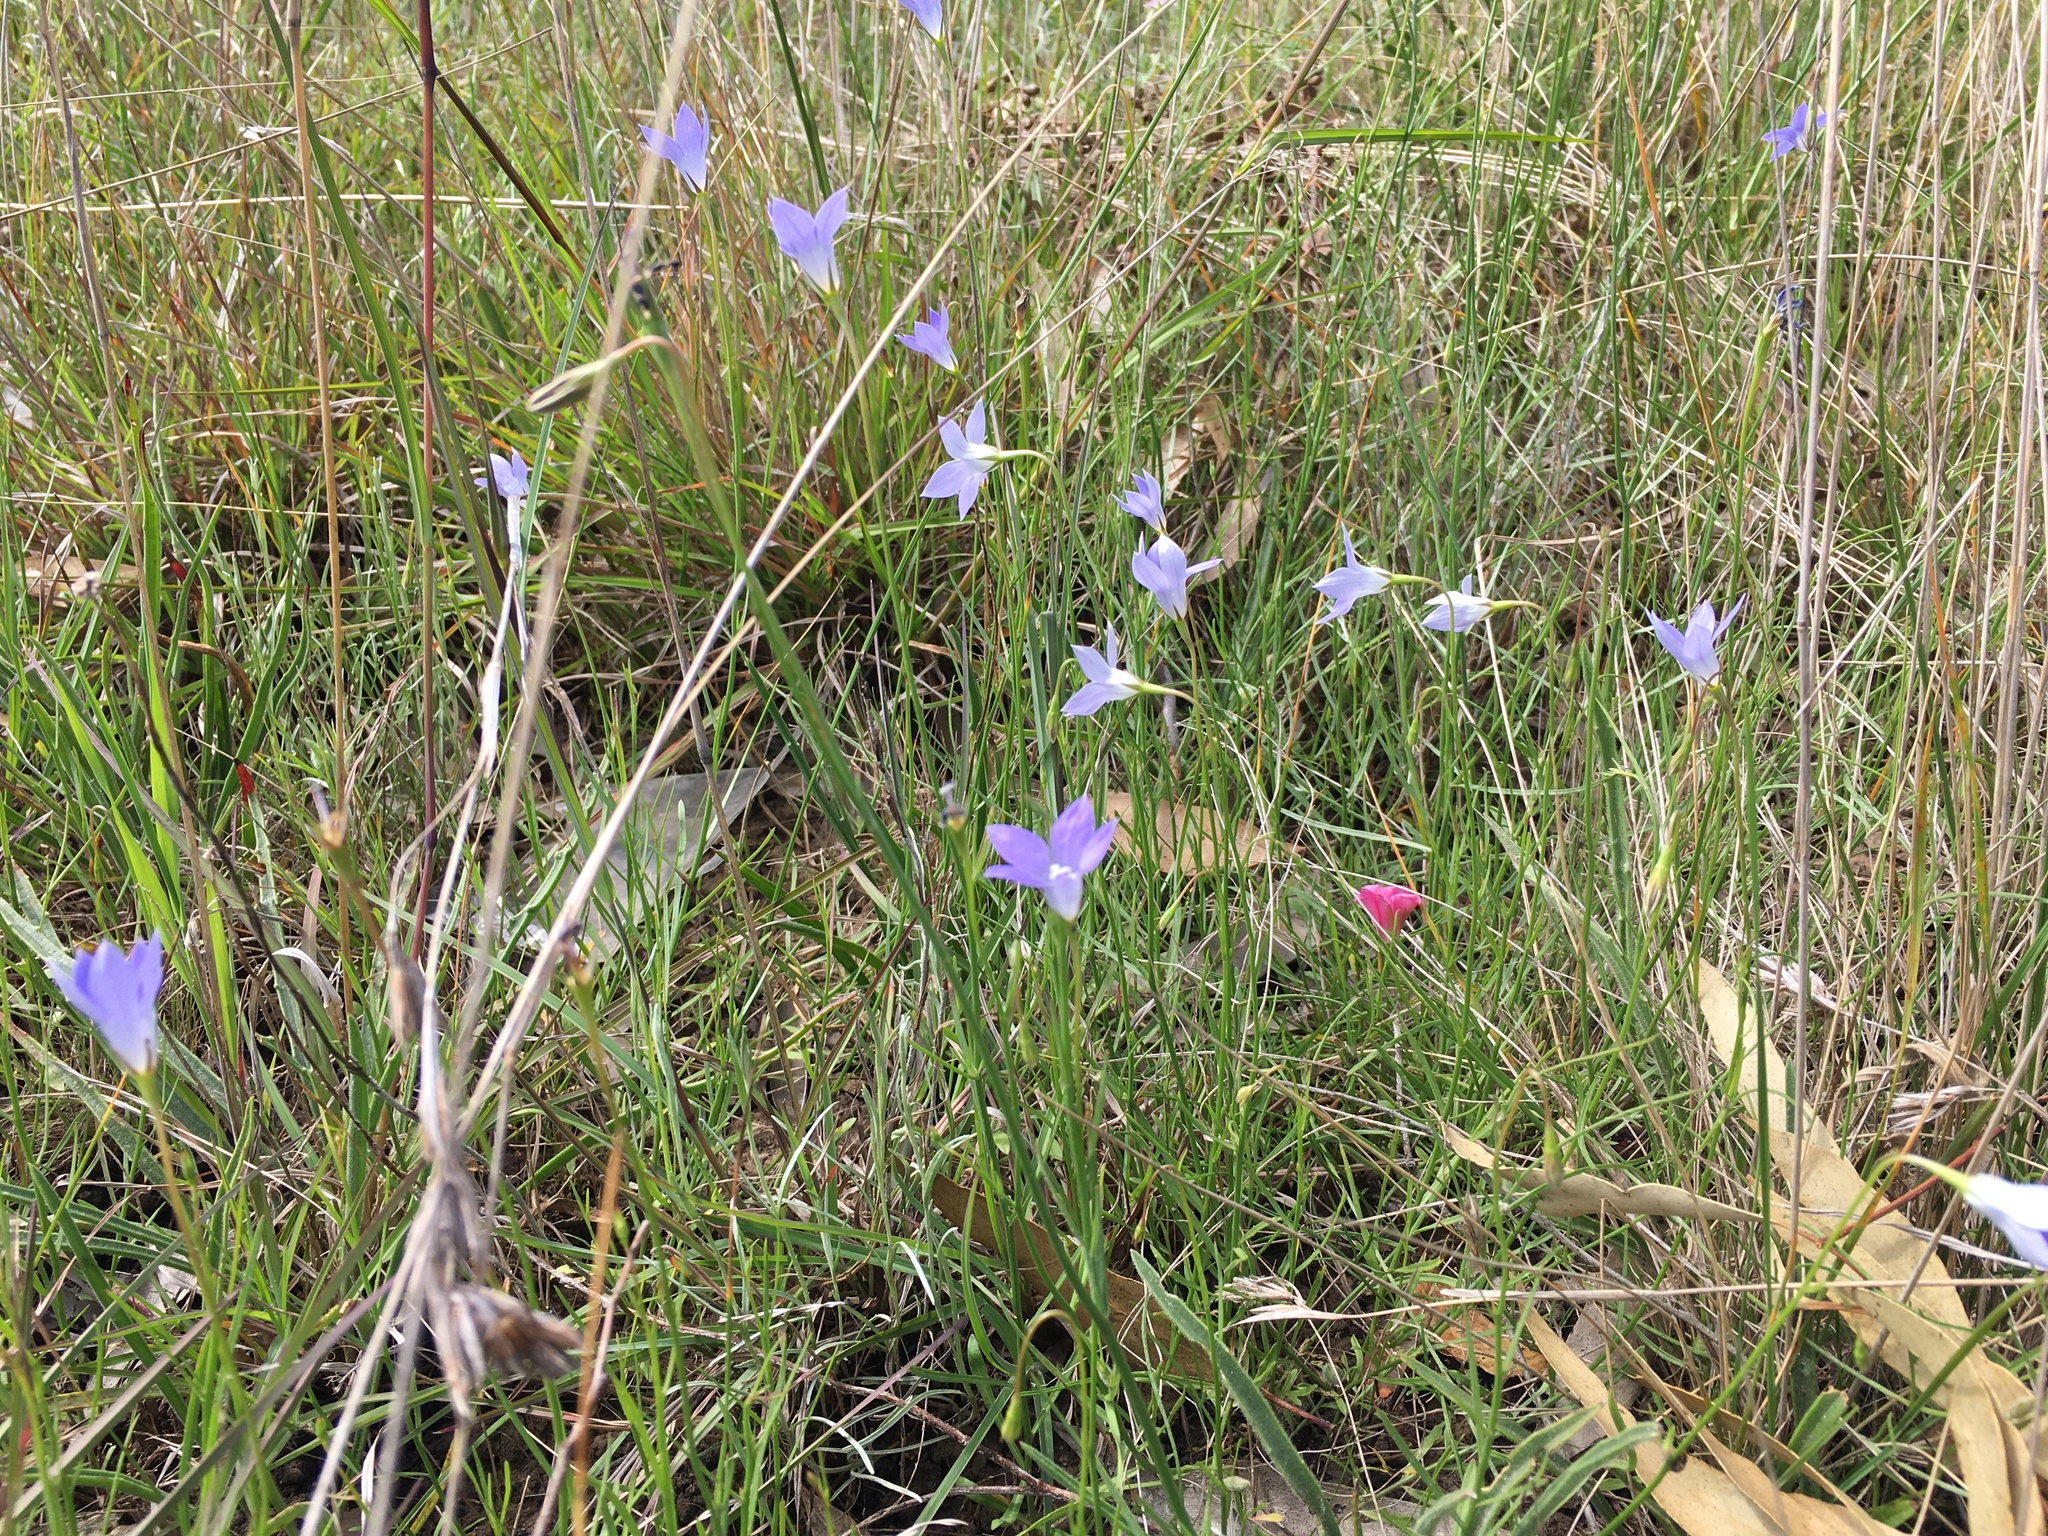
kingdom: Plantae
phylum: Tracheophyta
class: Magnoliopsida
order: Asterales
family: Campanulaceae
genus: Wahlenbergia
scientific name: Wahlenbergia capillaris
